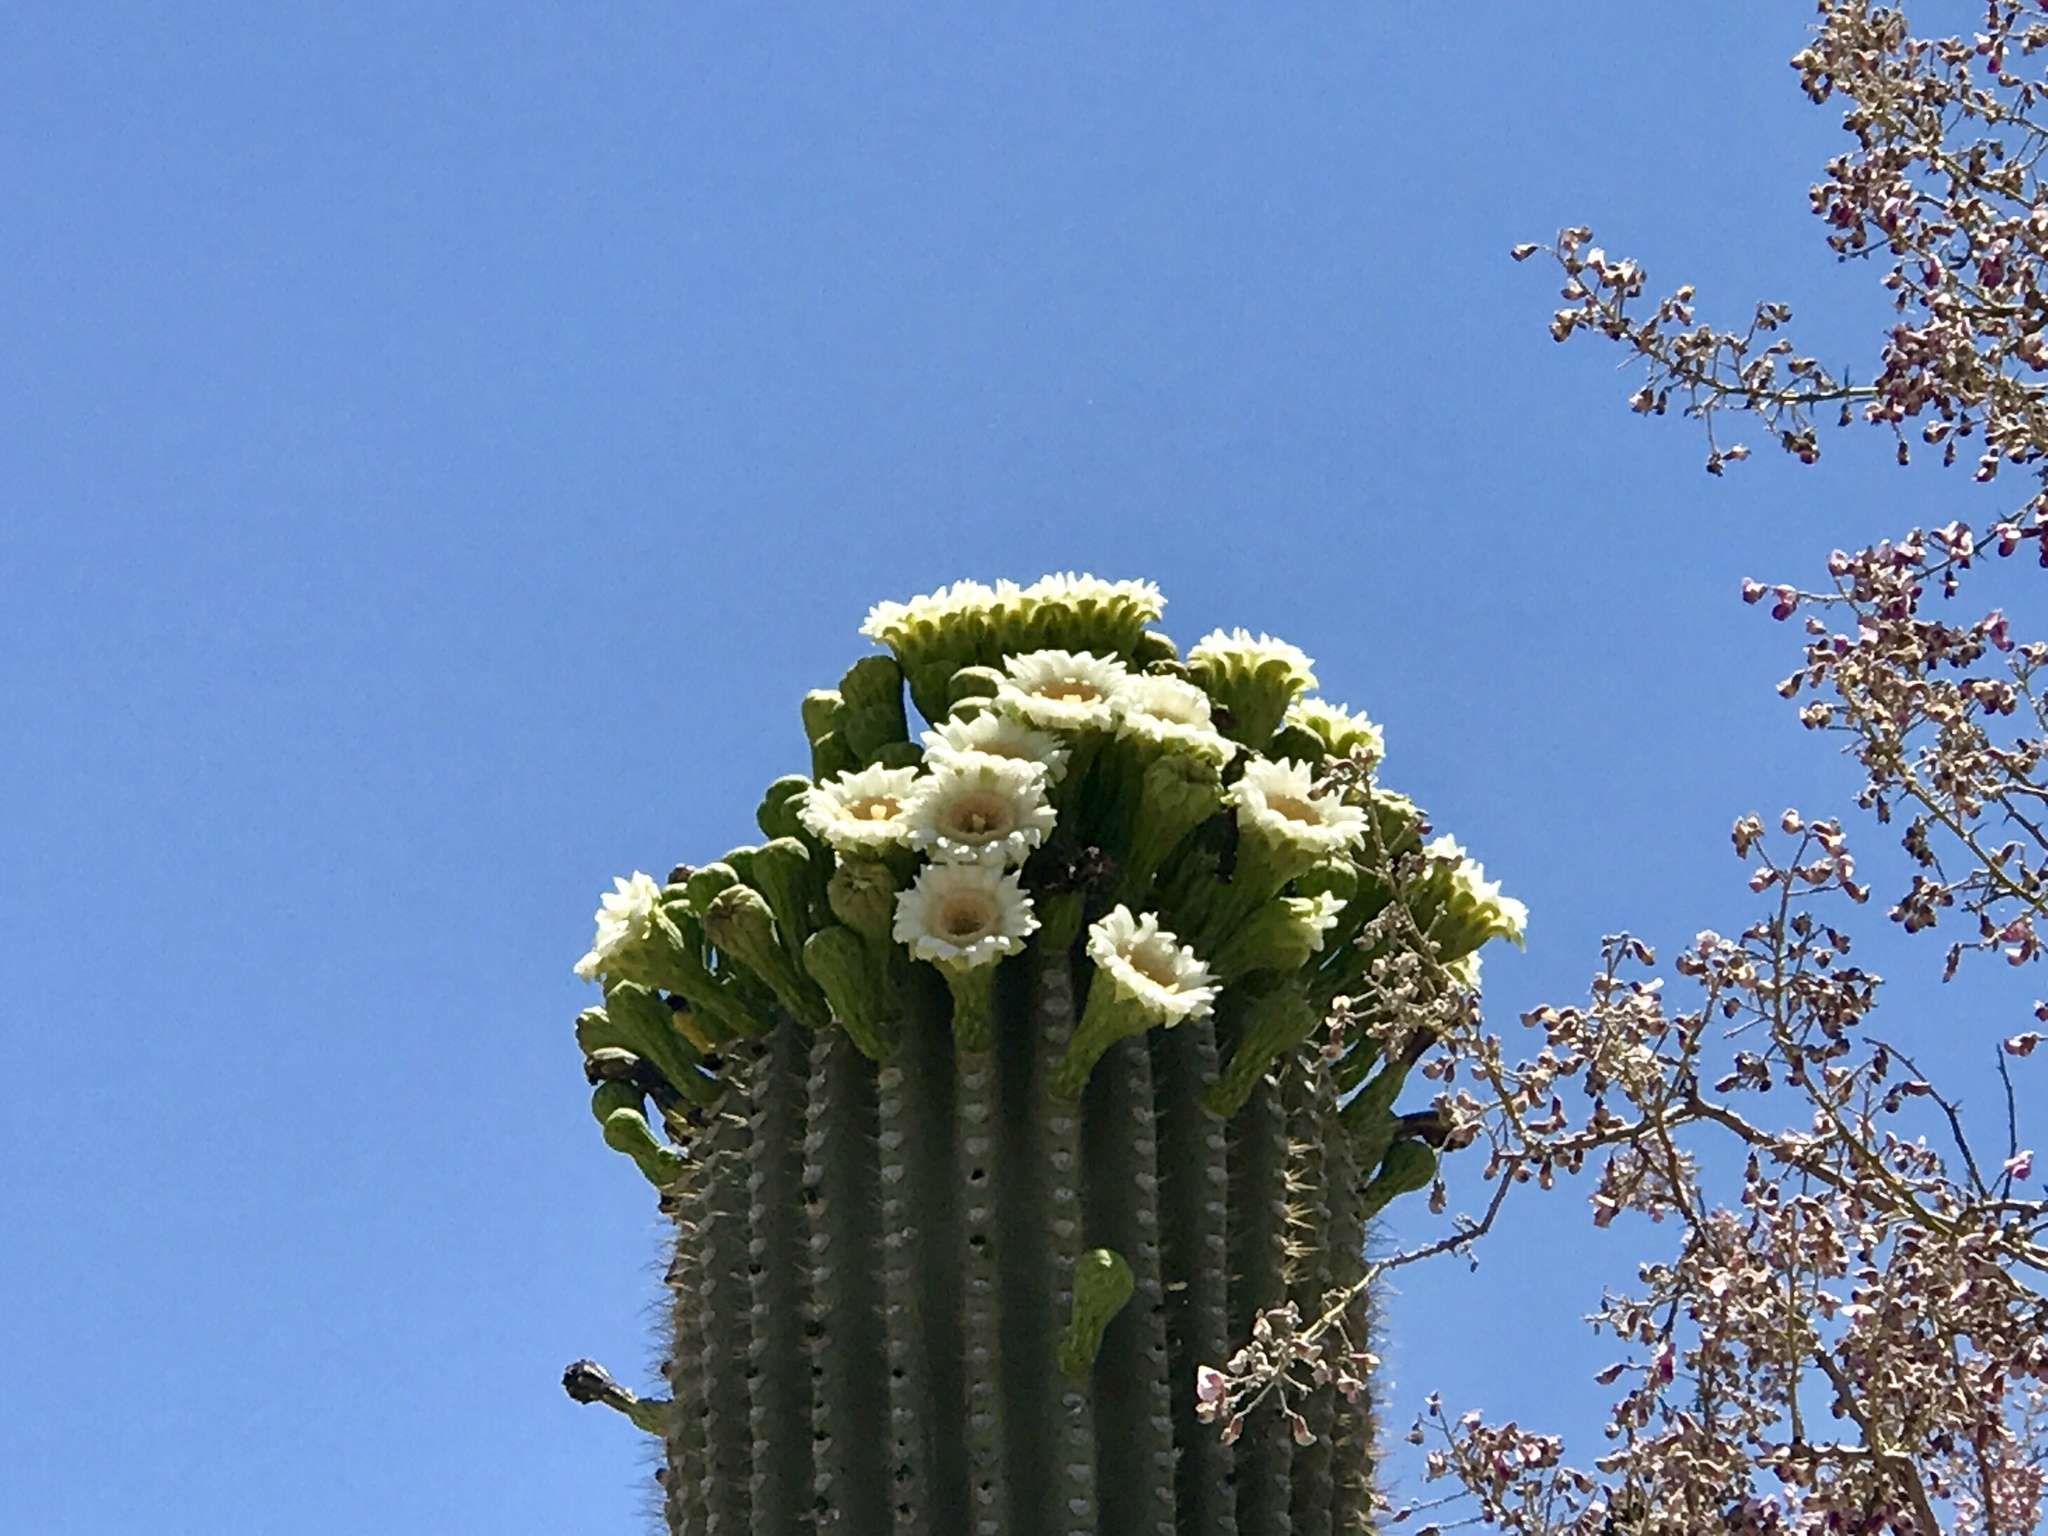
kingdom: Plantae
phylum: Tracheophyta
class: Magnoliopsida
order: Caryophyllales
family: Cactaceae
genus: Carnegiea
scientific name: Carnegiea gigantea
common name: Saguaro
